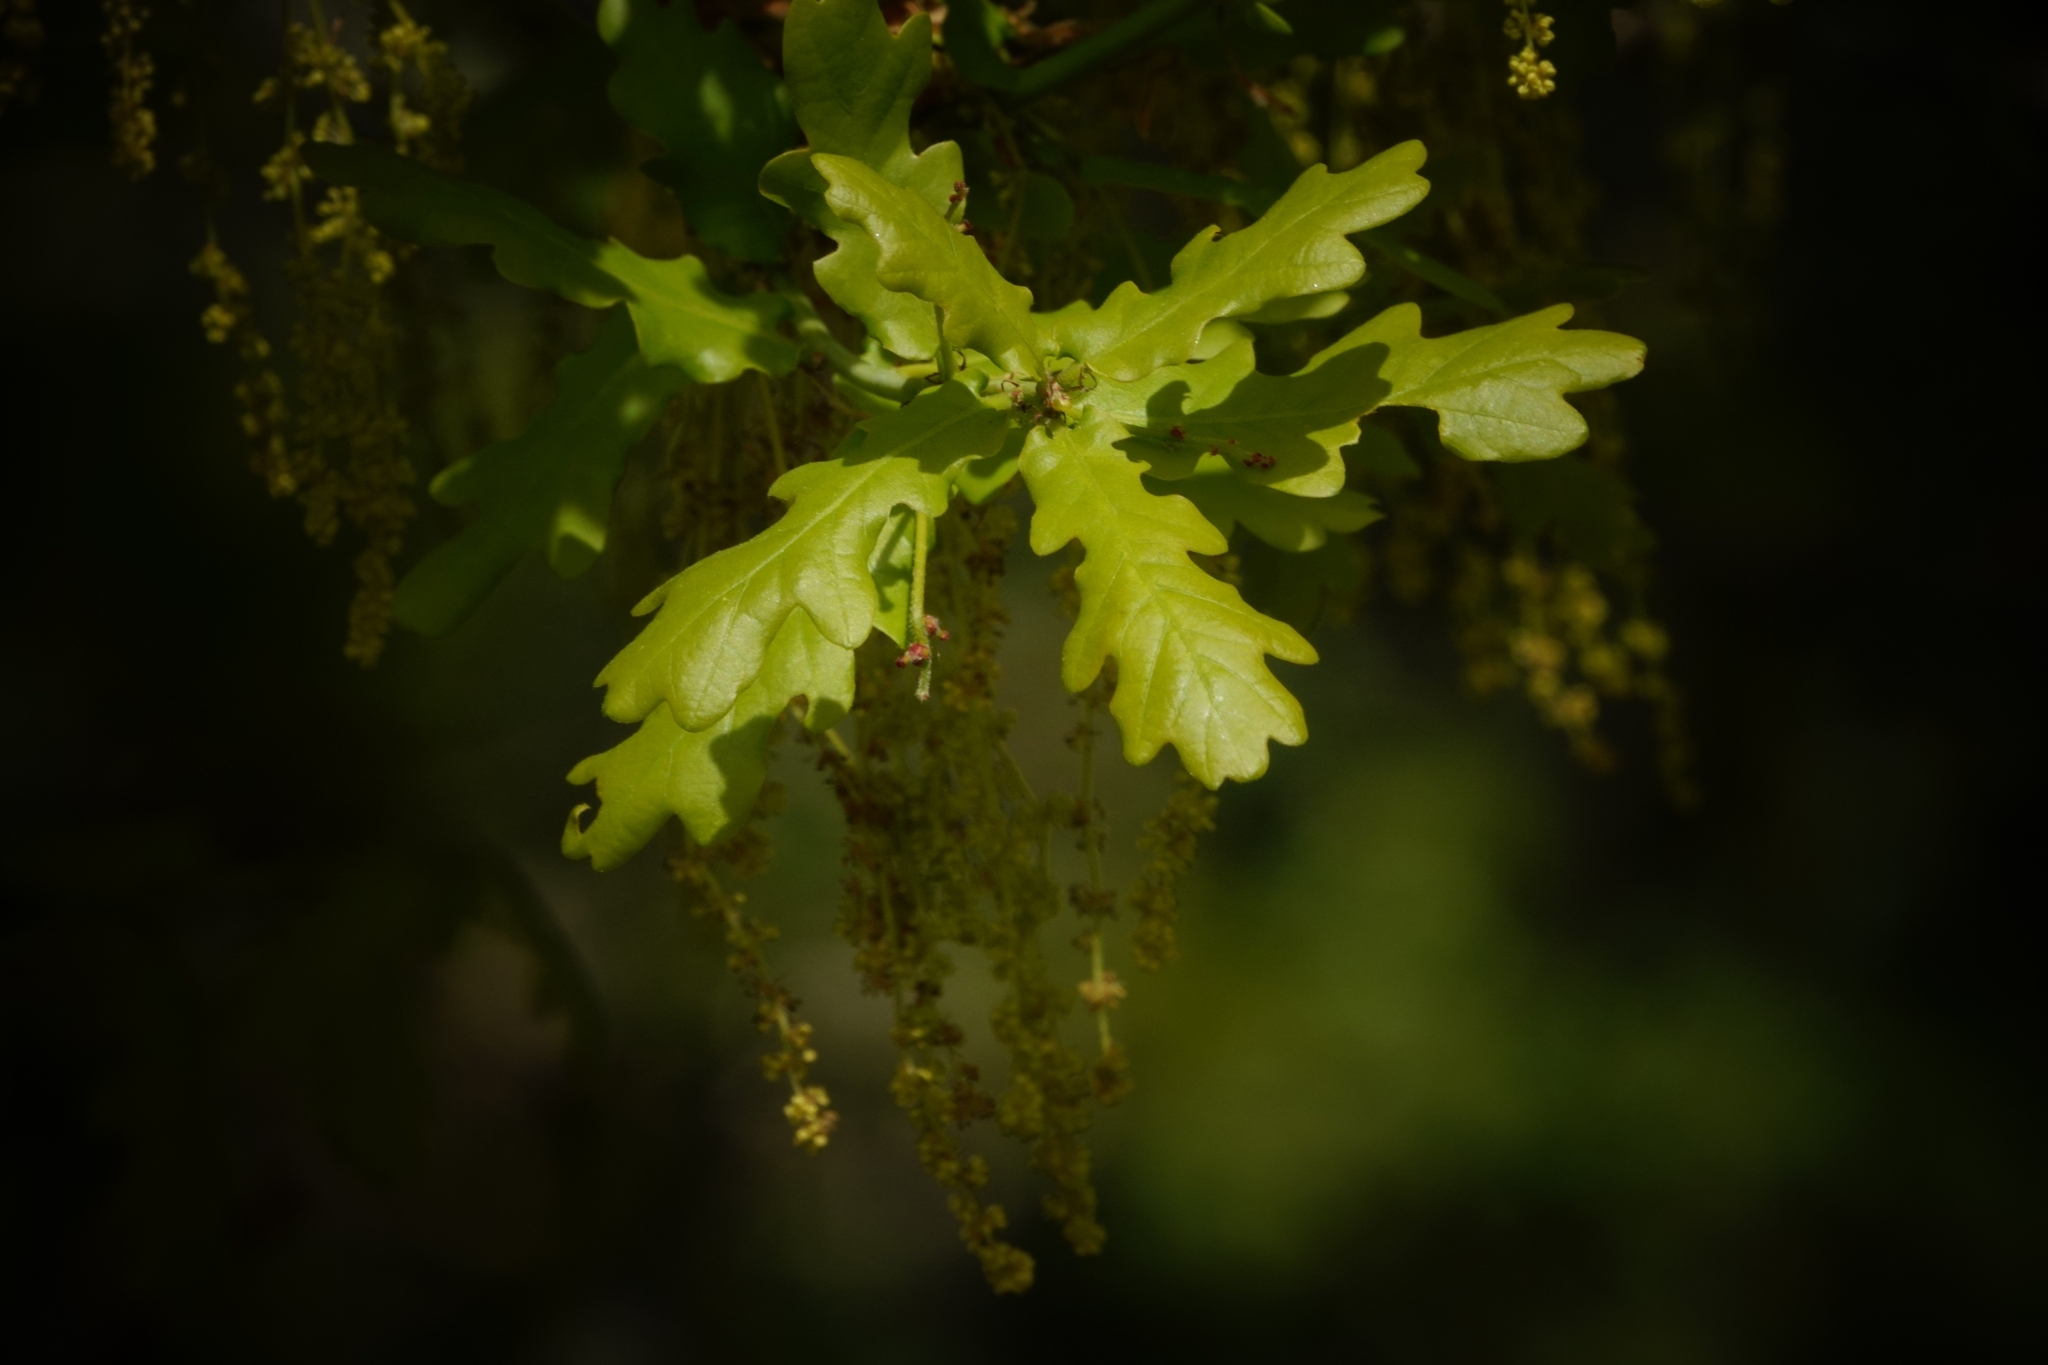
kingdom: Plantae
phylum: Tracheophyta
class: Magnoliopsida
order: Fagales
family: Fagaceae
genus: Quercus
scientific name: Quercus robur
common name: Pedunculate oak
